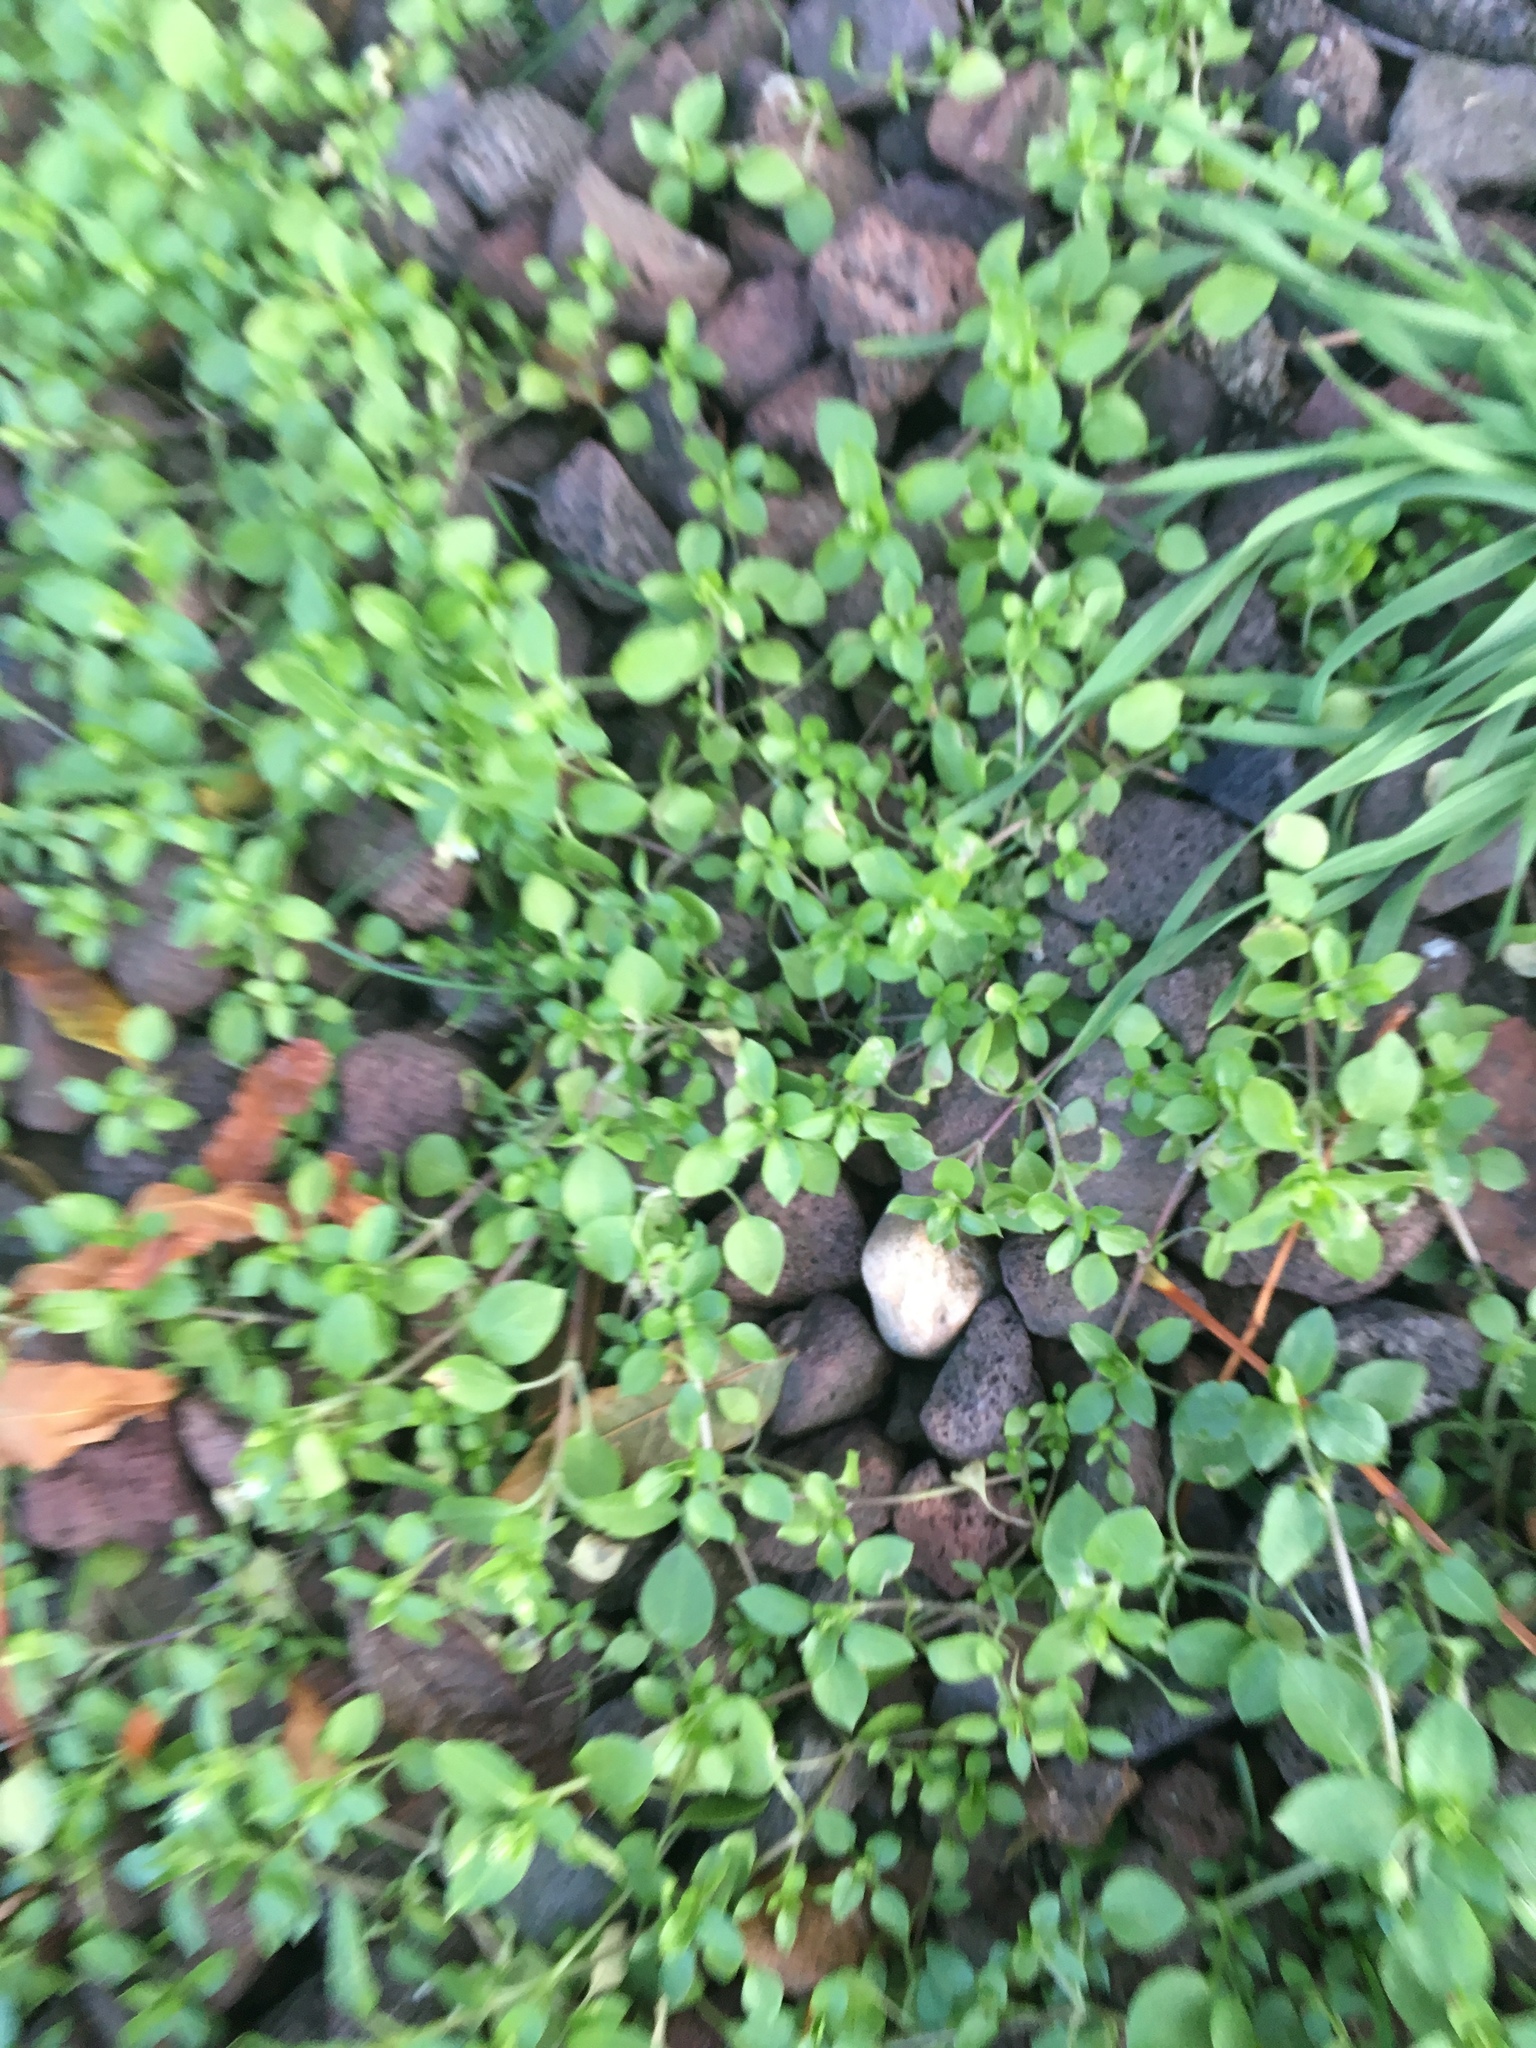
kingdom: Plantae
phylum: Tracheophyta
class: Magnoliopsida
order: Caryophyllales
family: Caryophyllaceae
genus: Stellaria
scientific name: Stellaria media
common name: Common chickweed
